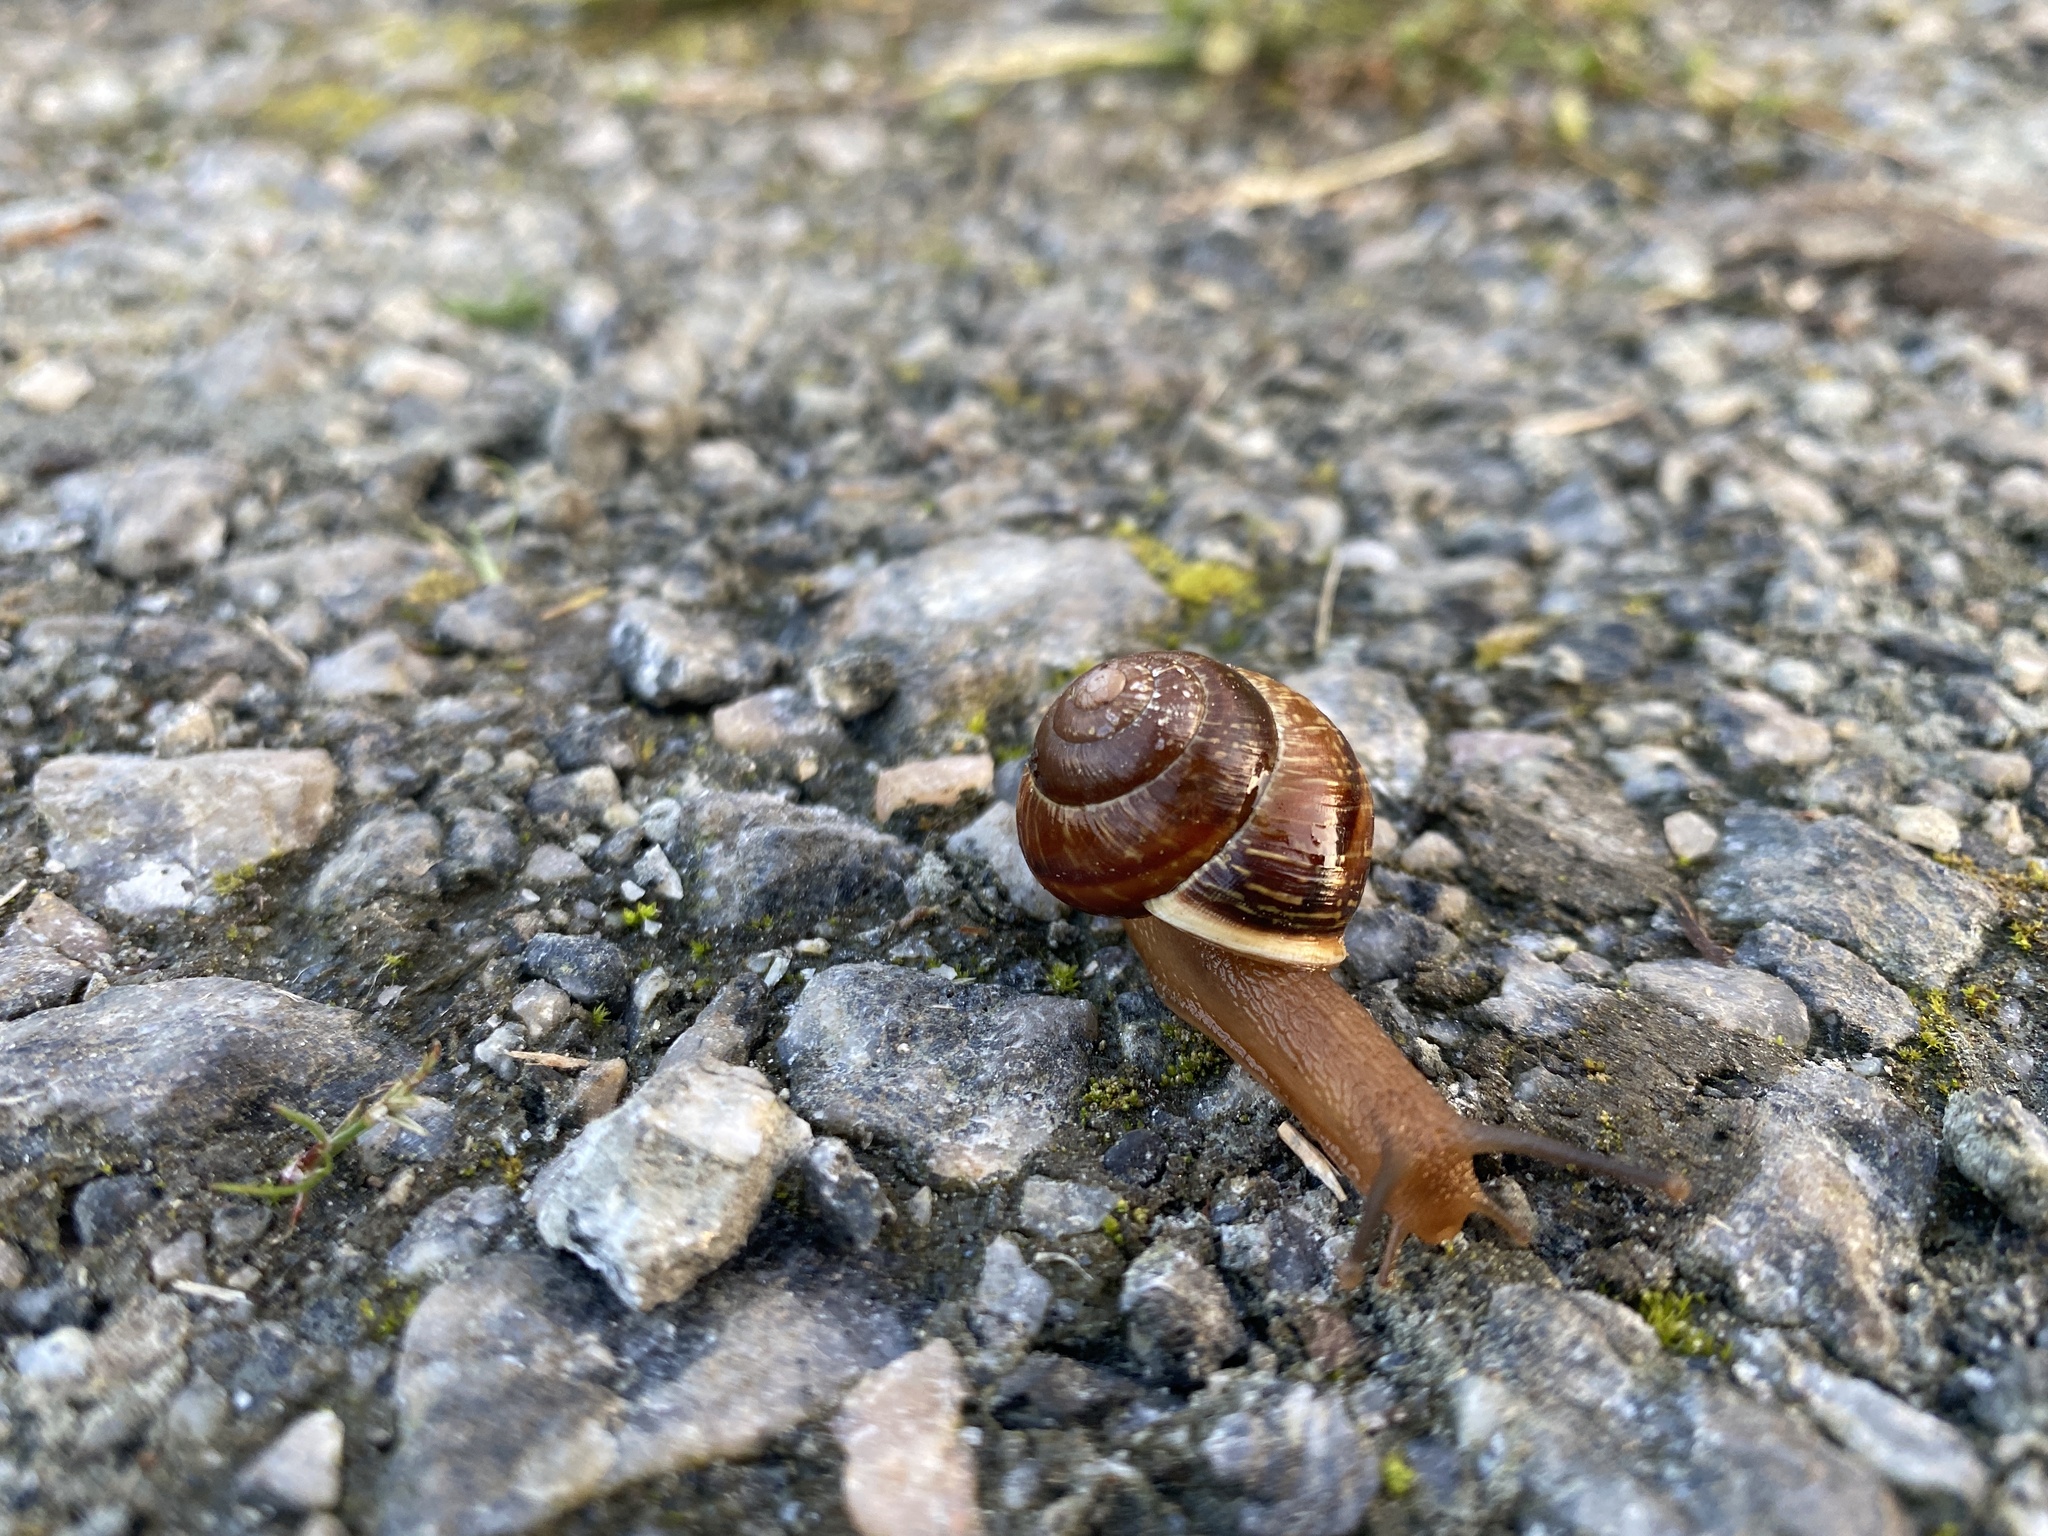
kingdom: Animalia
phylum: Mollusca
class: Gastropoda
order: Stylommatophora
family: Helicidae
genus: Arianta
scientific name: Arianta arbustorum
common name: Copse snail
